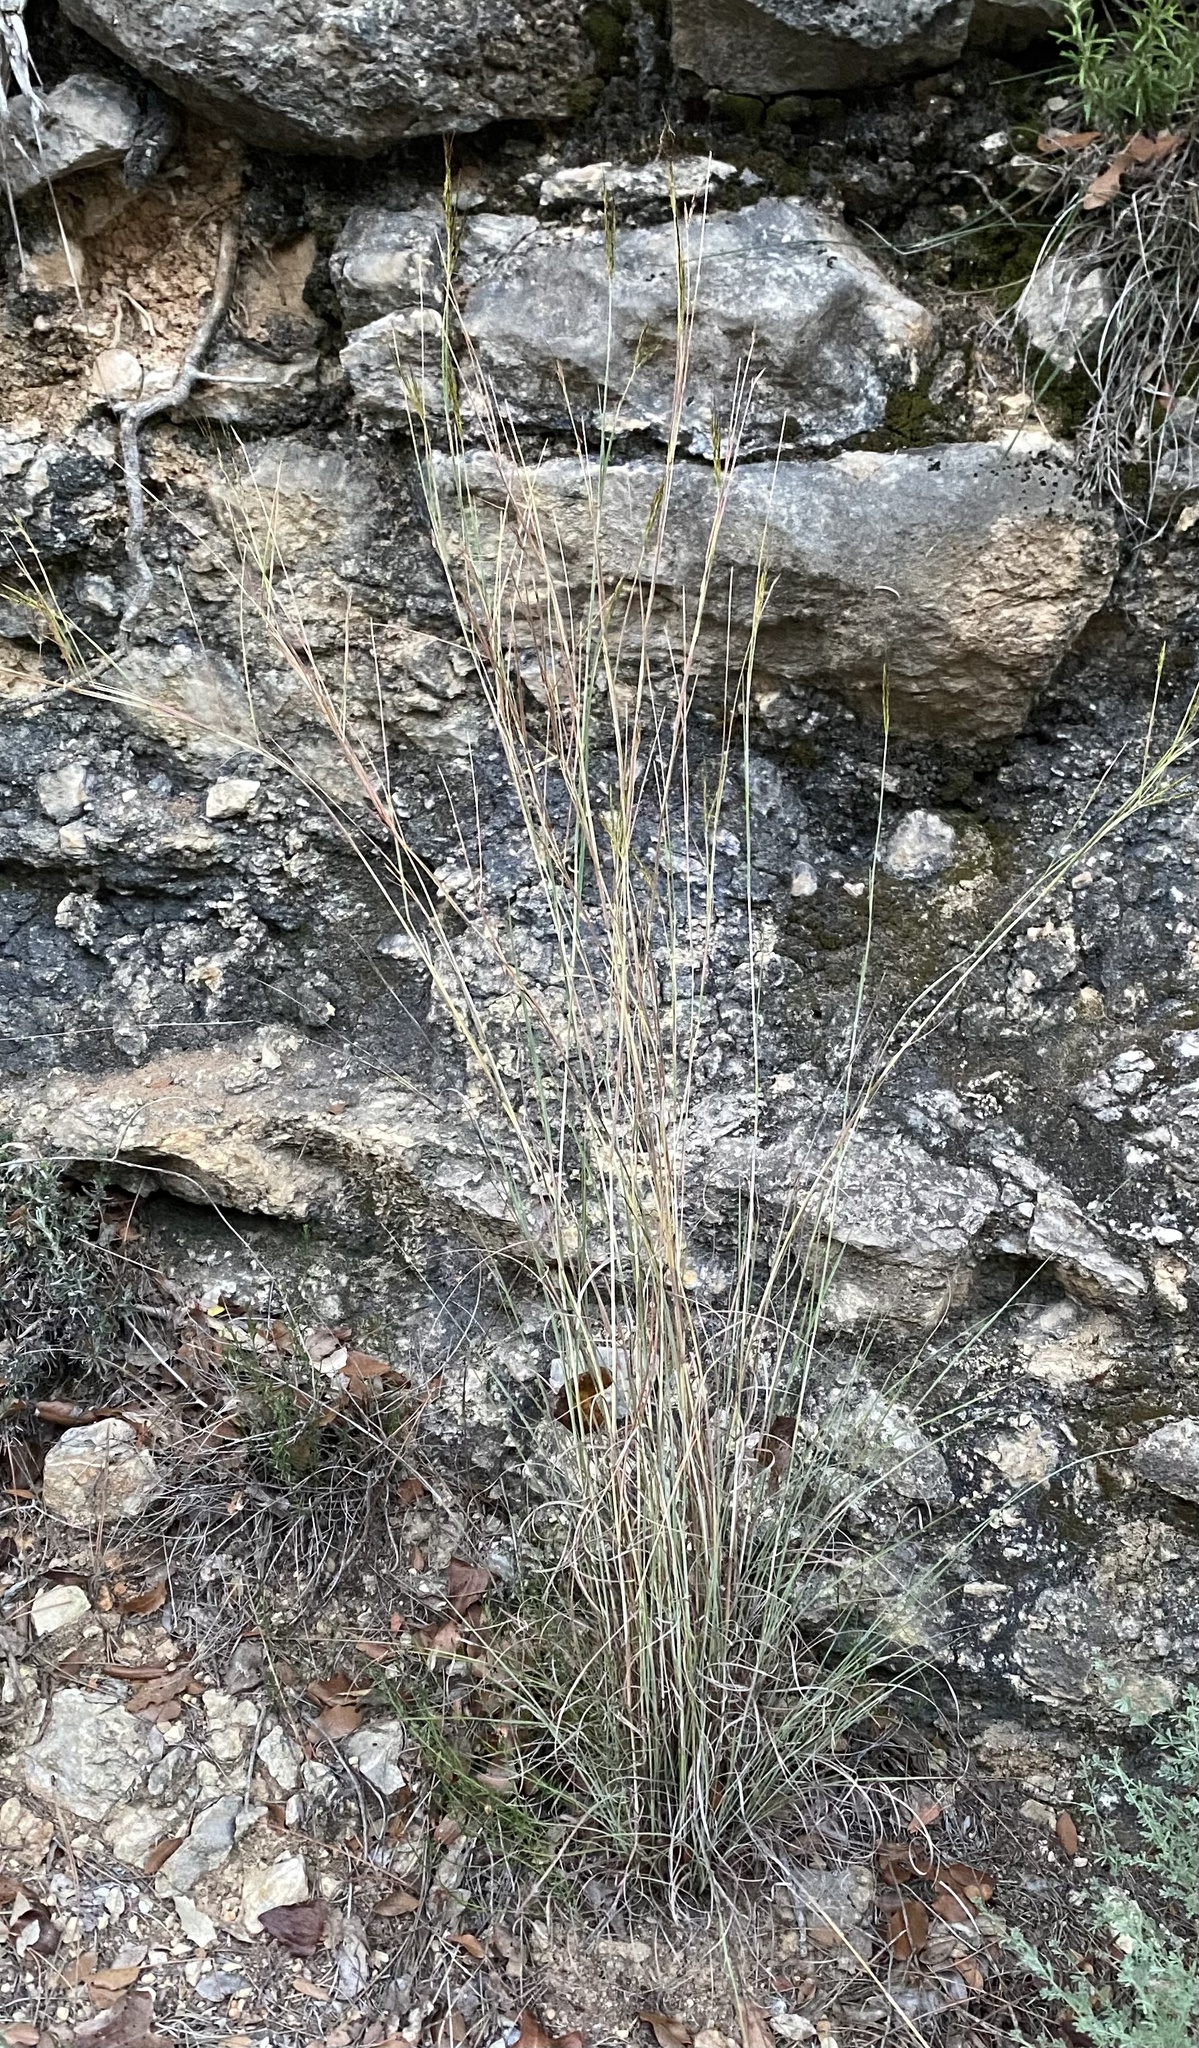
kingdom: Plantae
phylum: Tracheophyta
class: Liliopsida
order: Poales
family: Poaceae
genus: Hyparrhenia
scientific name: Hyparrhenia hirta
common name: Thatching grass
